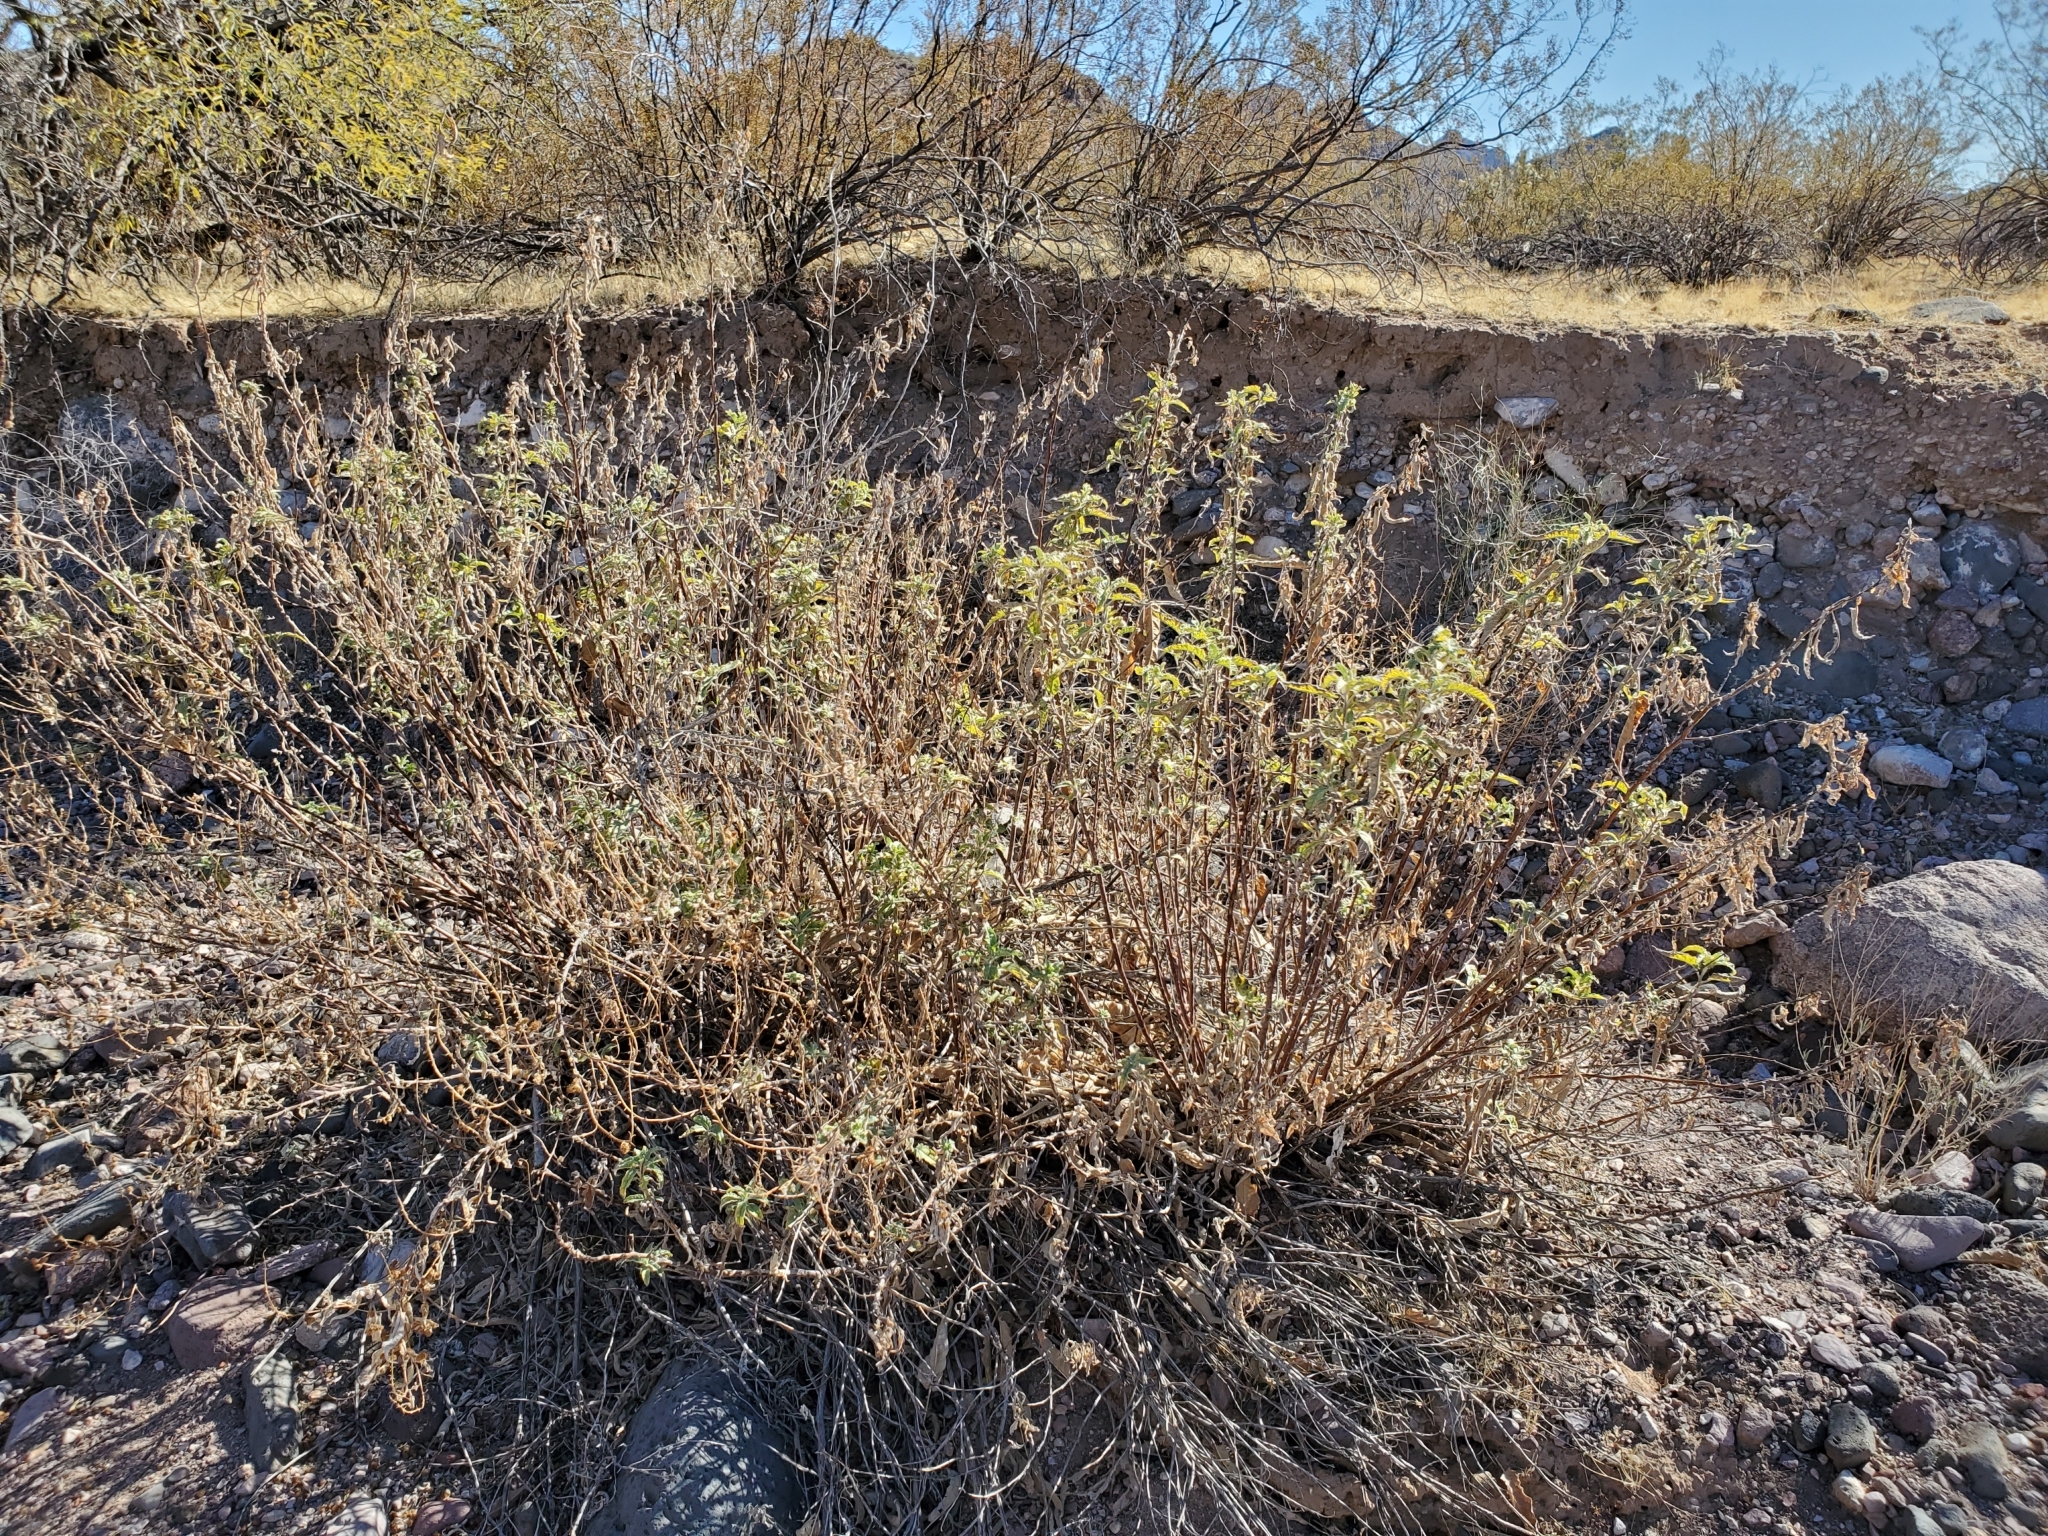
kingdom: Plantae
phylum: Tracheophyta
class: Magnoliopsida
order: Asterales
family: Asteraceae
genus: Ambrosia
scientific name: Ambrosia ambrosioides
